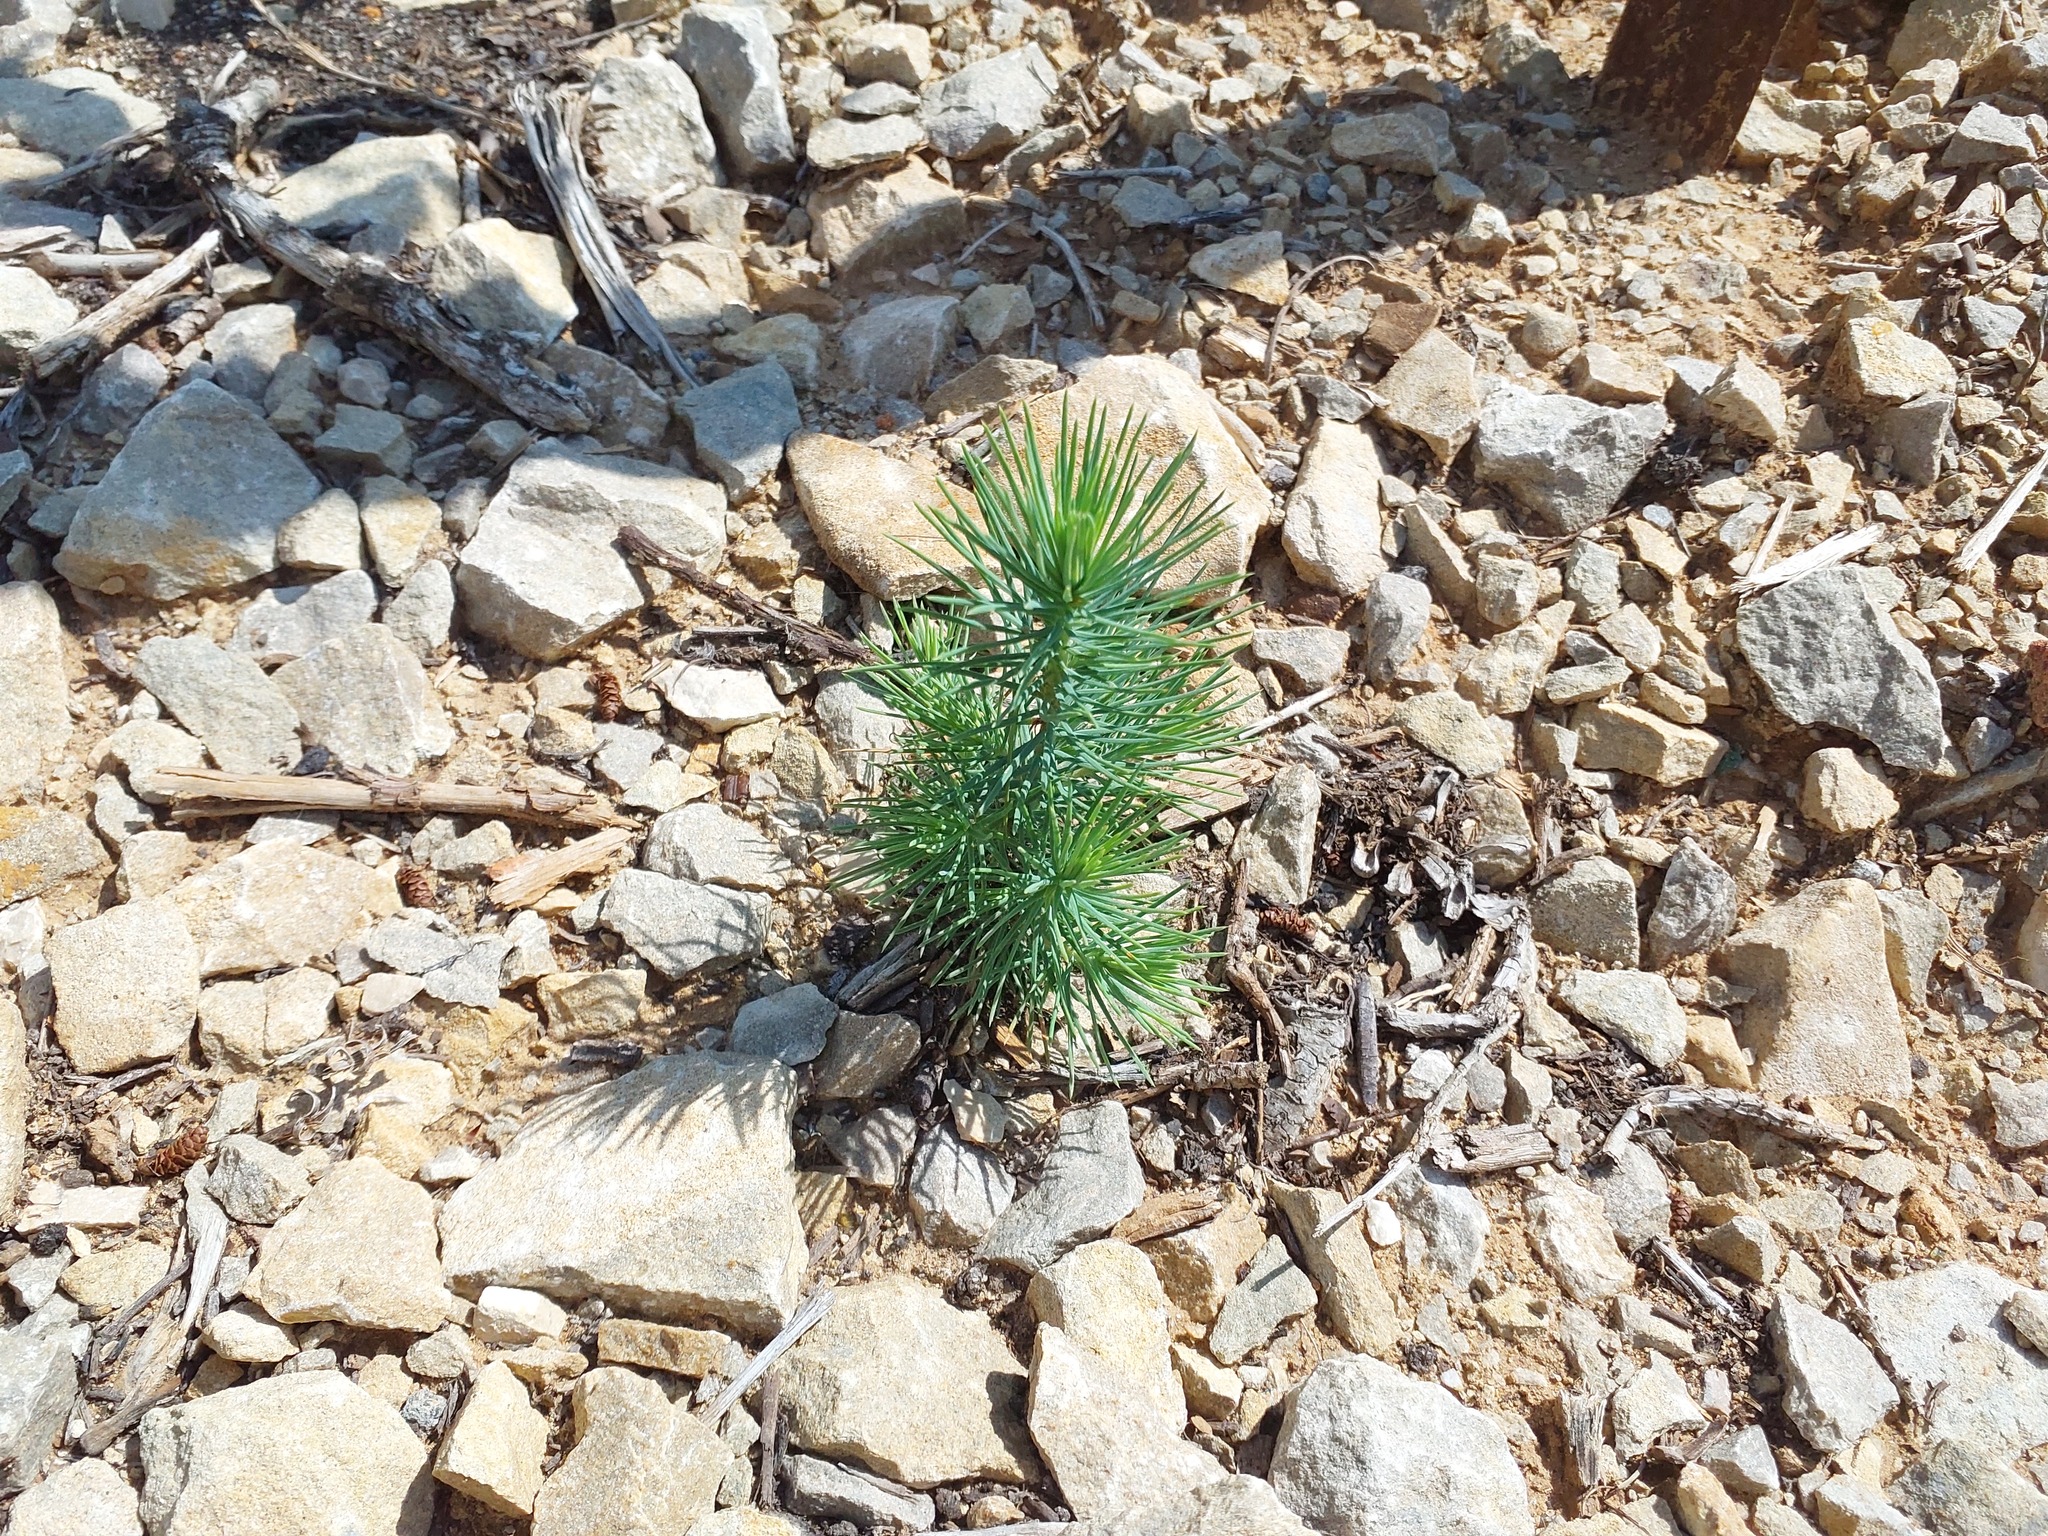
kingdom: Plantae
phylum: Tracheophyta
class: Pinopsida
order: Pinales
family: Pinaceae
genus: Pinus
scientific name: Pinus halepensis
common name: Aleppo pine
